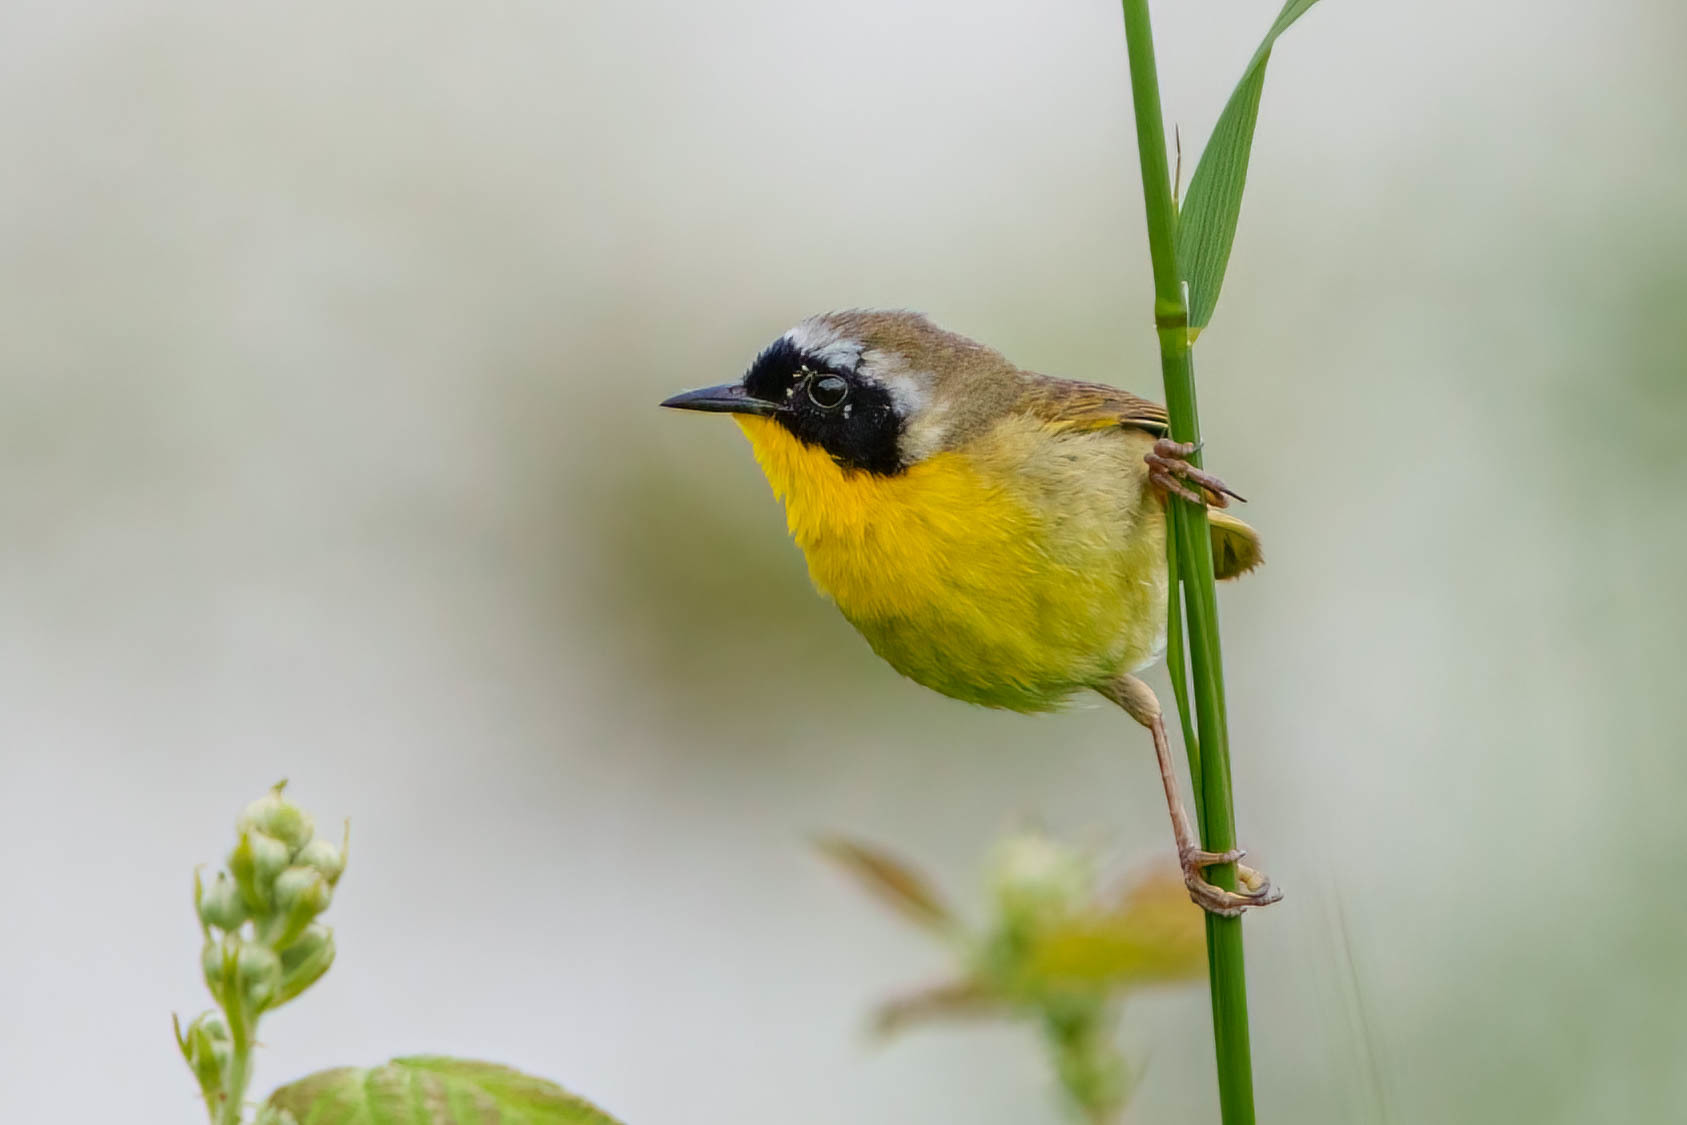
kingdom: Animalia
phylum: Chordata
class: Aves
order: Passeriformes
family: Parulidae
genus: Geothlypis
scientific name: Geothlypis trichas
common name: Common yellowthroat
